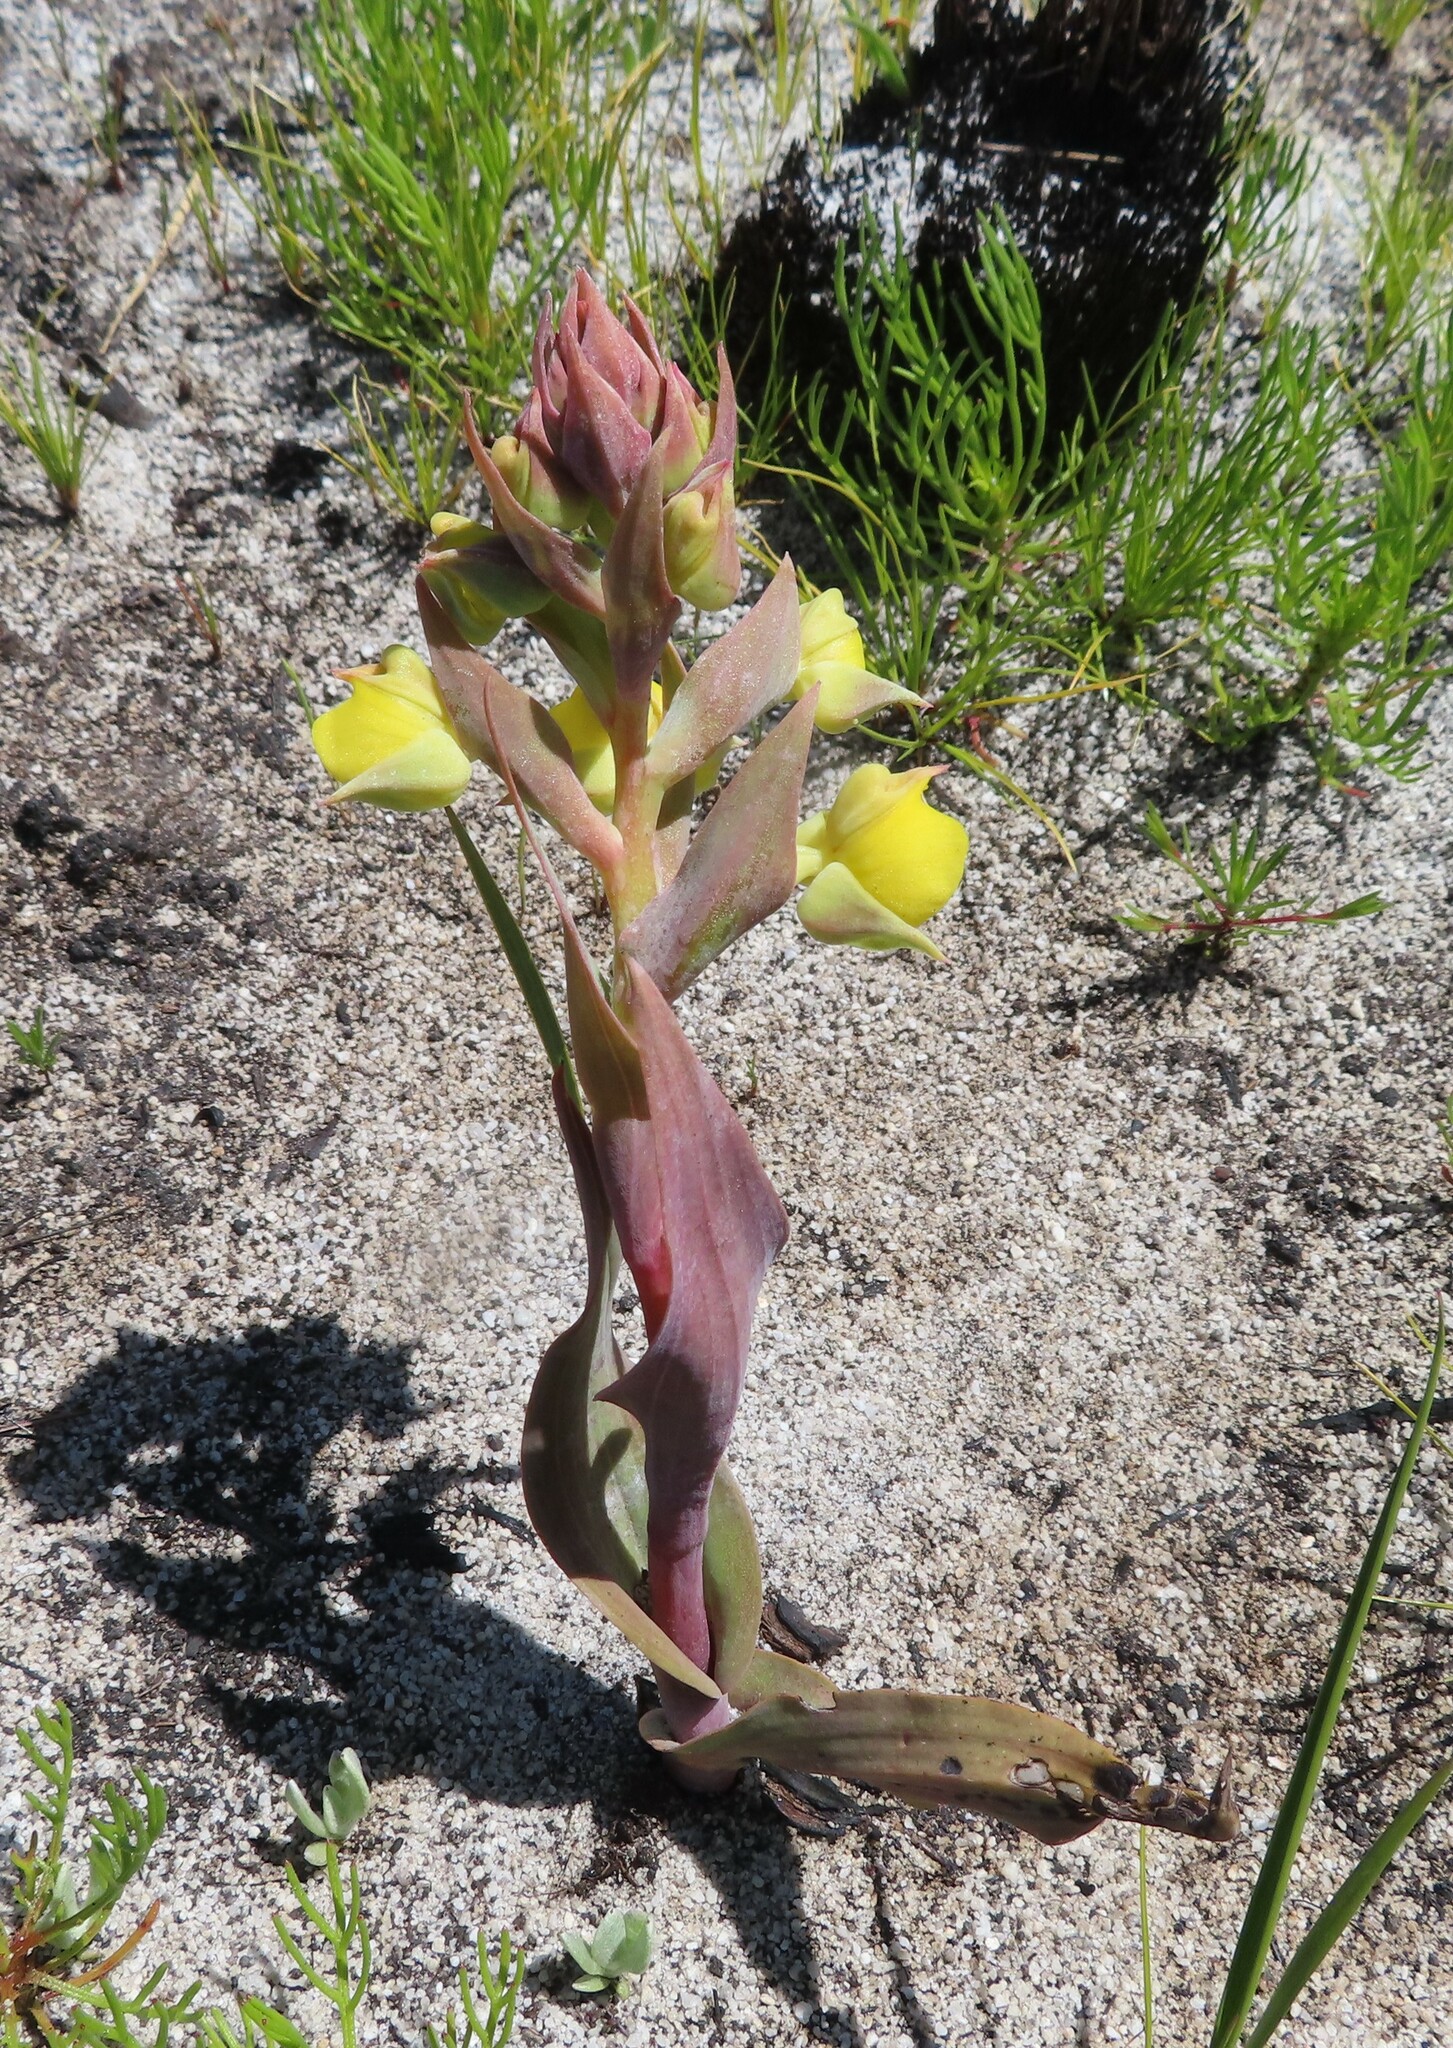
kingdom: Plantae
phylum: Tracheophyta
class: Liliopsida
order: Asparagales
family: Orchidaceae
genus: Pterygodium
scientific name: Pterygodium acutifolium
